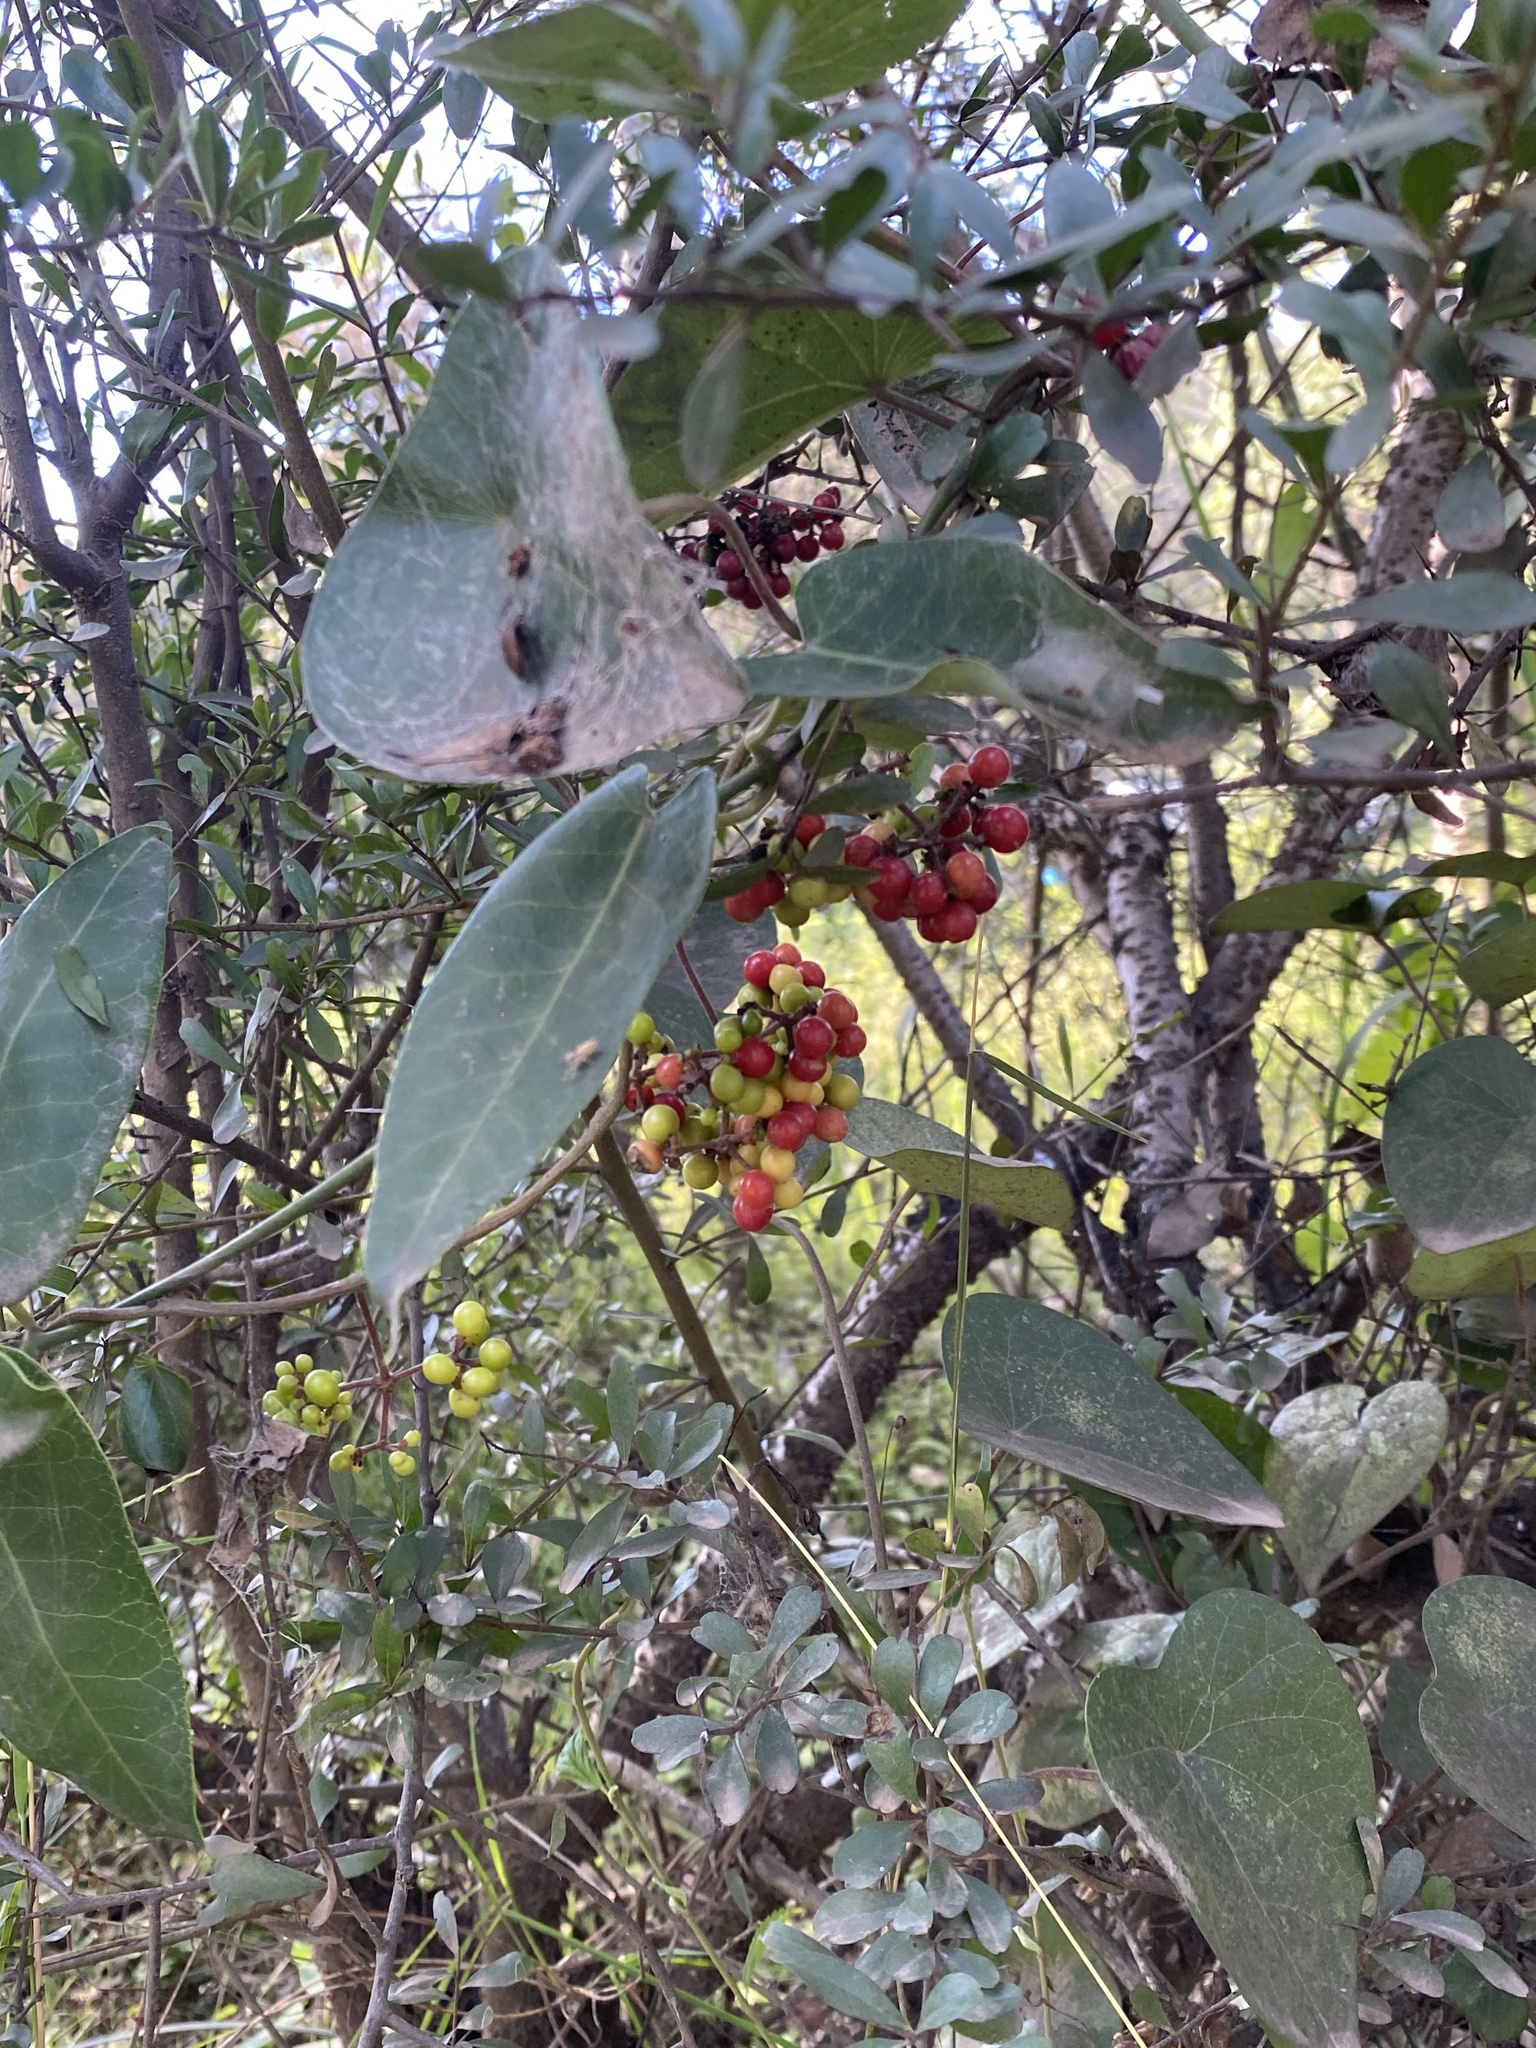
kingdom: Plantae
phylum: Tracheophyta
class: Magnoliopsida
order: Ranunculales
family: Menispermaceae
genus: Stephania
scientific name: Stephania japonica
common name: Snake vine
